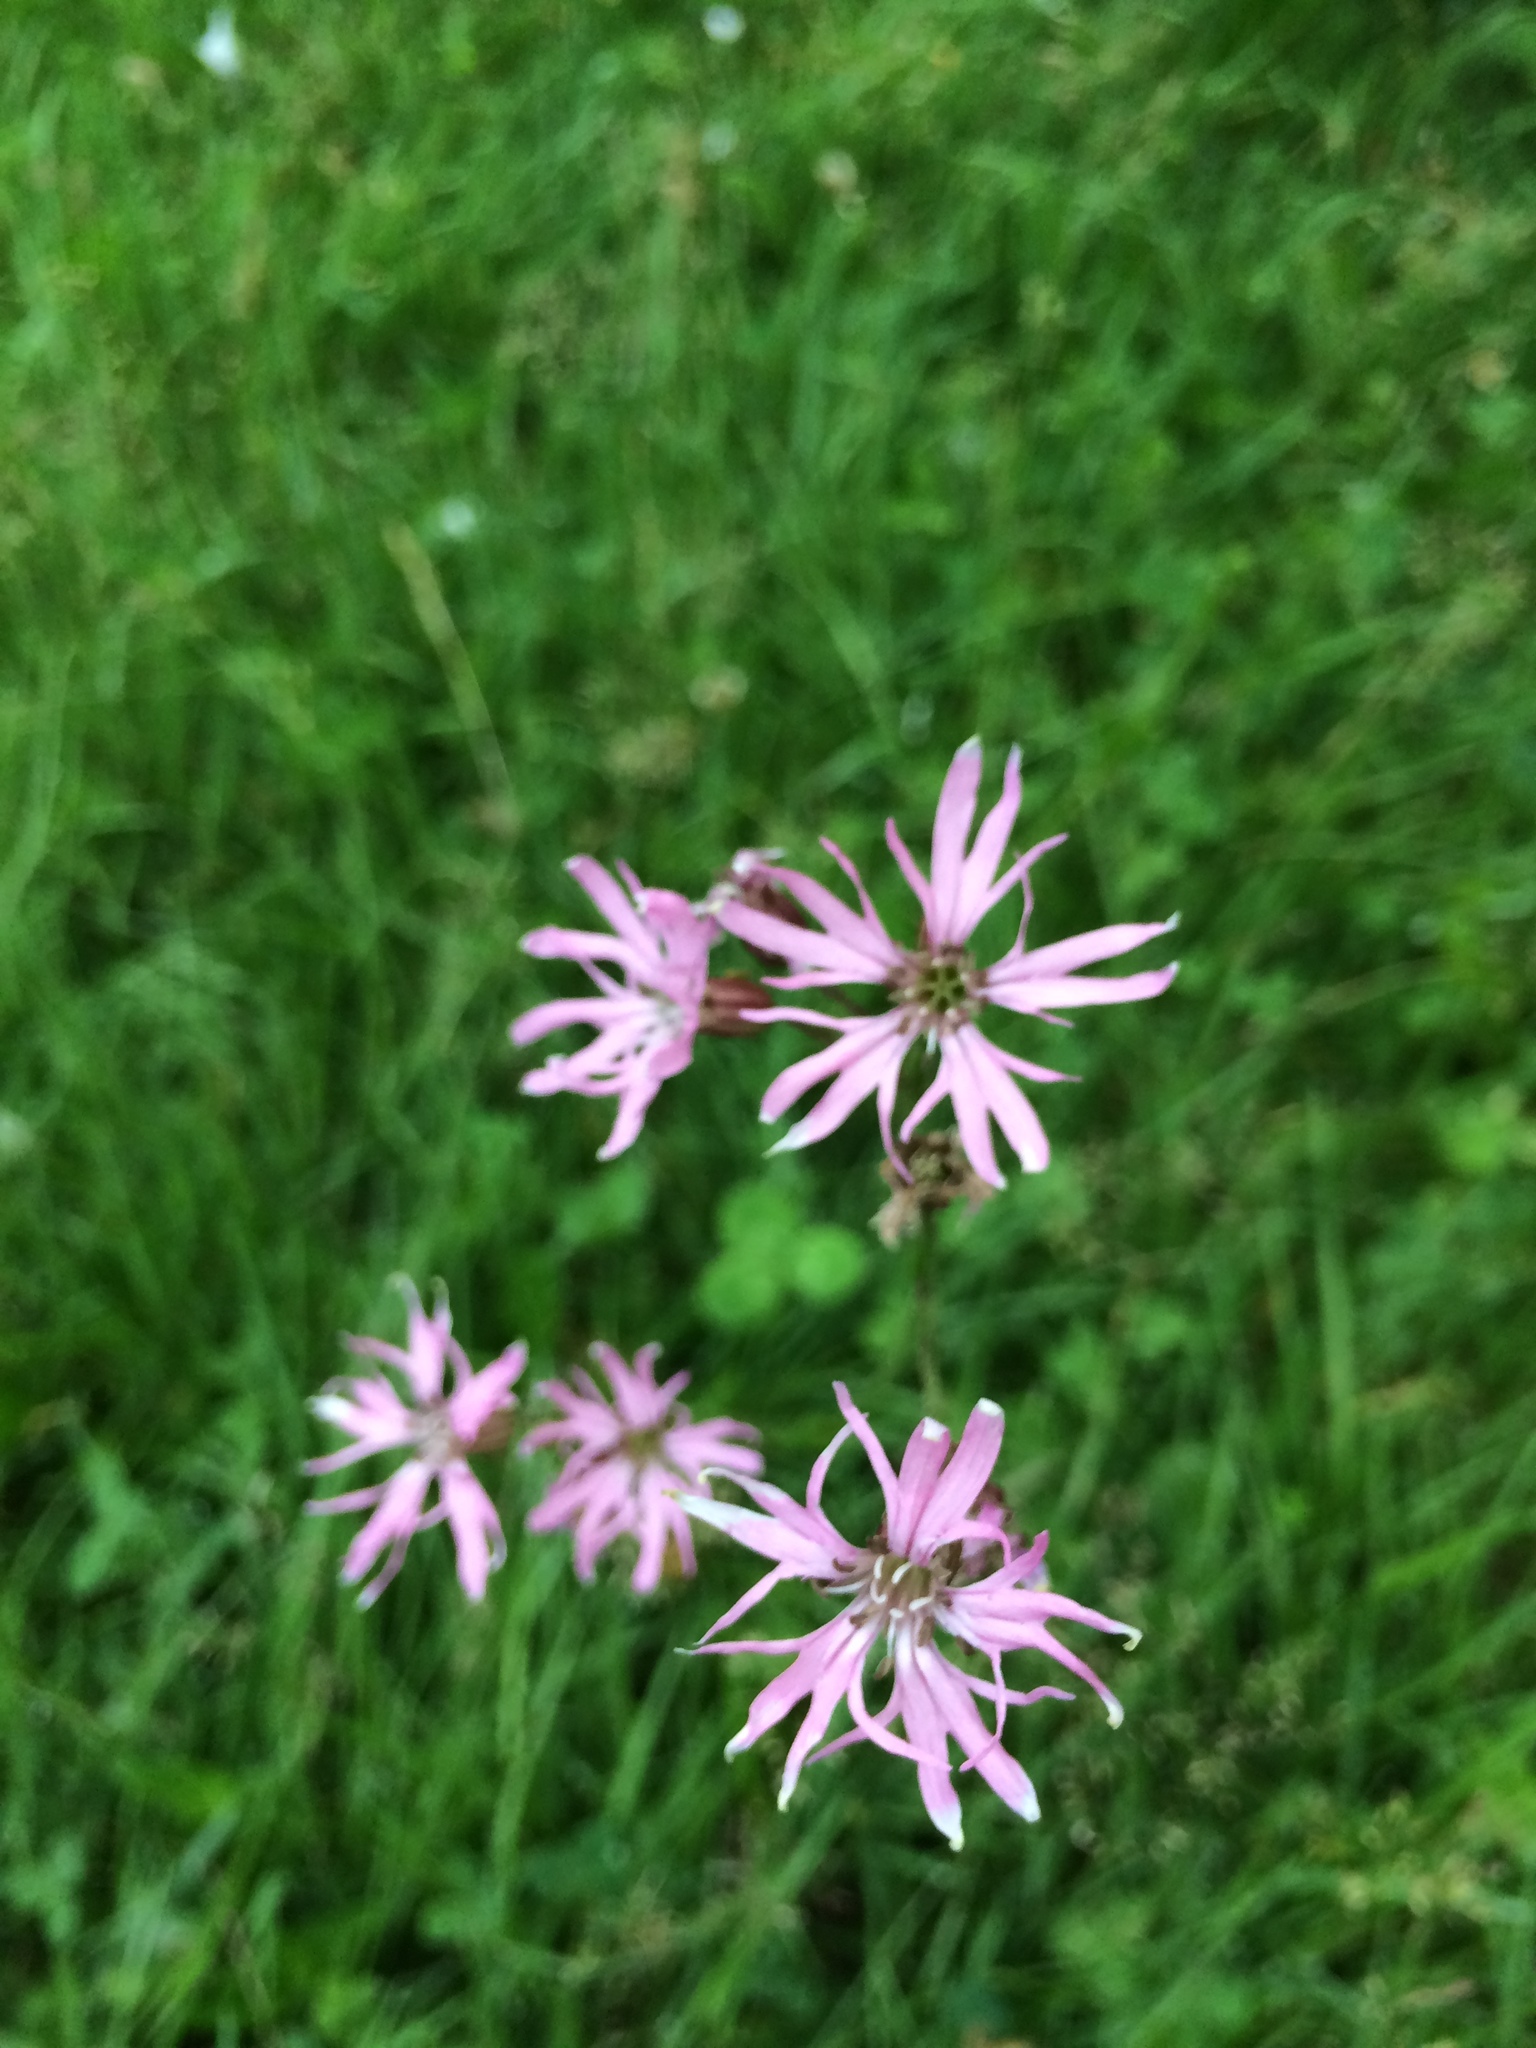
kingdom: Plantae
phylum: Tracheophyta
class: Magnoliopsida
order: Caryophyllales
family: Caryophyllaceae
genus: Silene
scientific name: Silene flos-cuculi
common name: Ragged-robin
